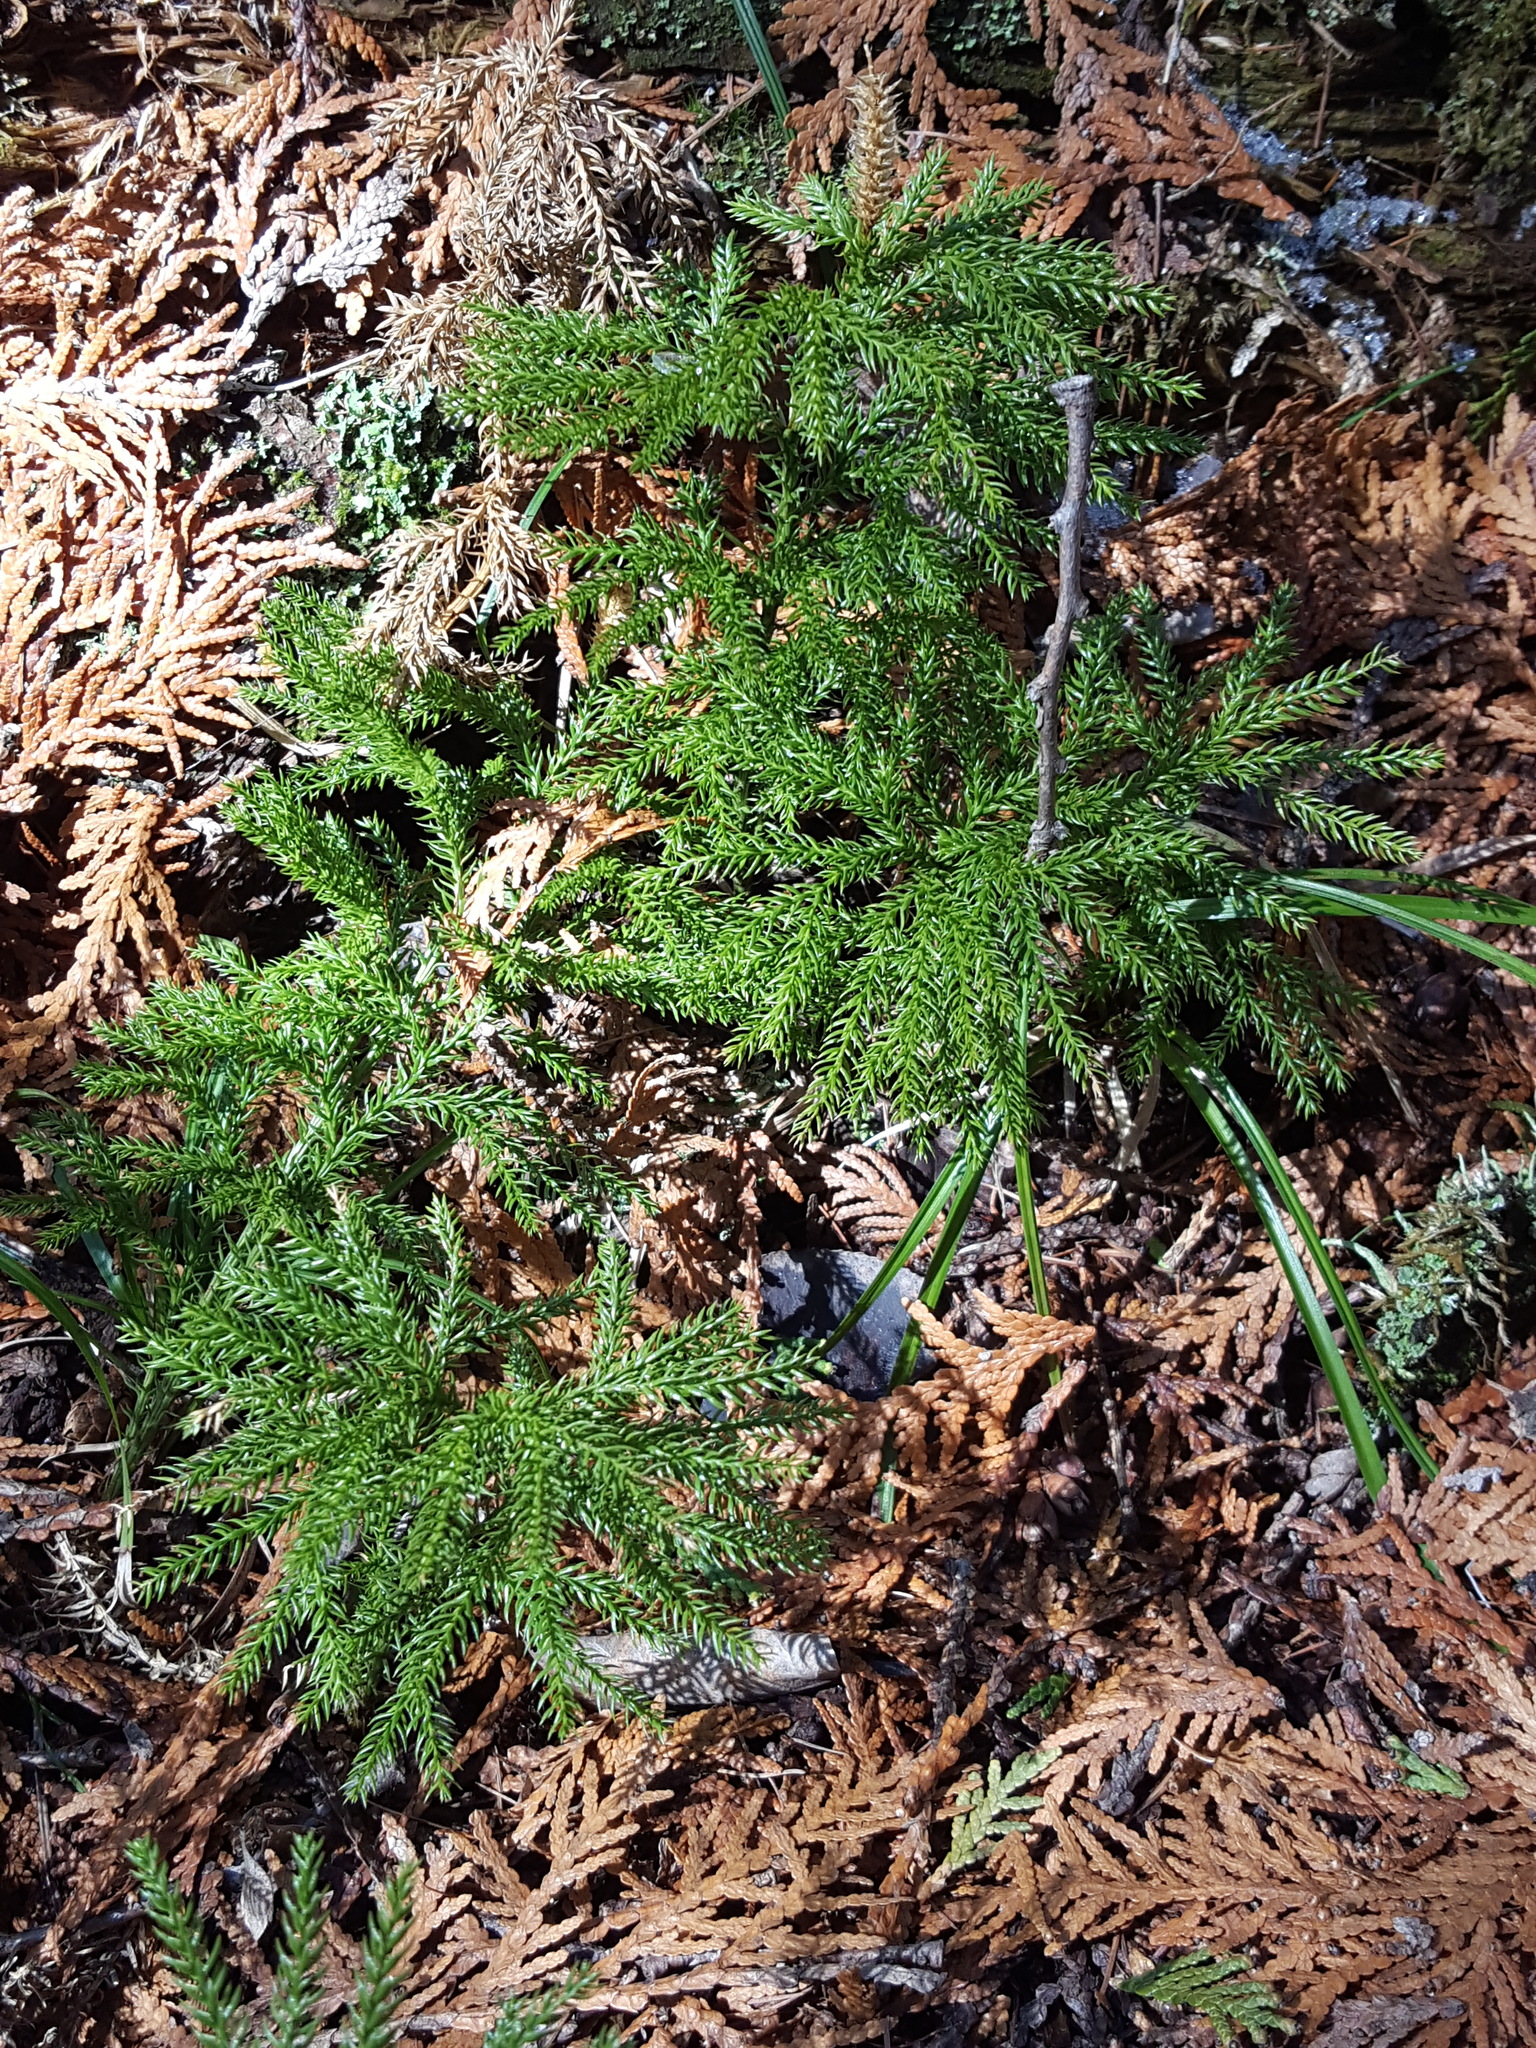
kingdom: Plantae
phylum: Tracheophyta
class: Lycopodiopsida
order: Lycopodiales
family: Lycopodiaceae
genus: Dendrolycopodium
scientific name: Dendrolycopodium dendroideum
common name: Northern tree-clubmoss
